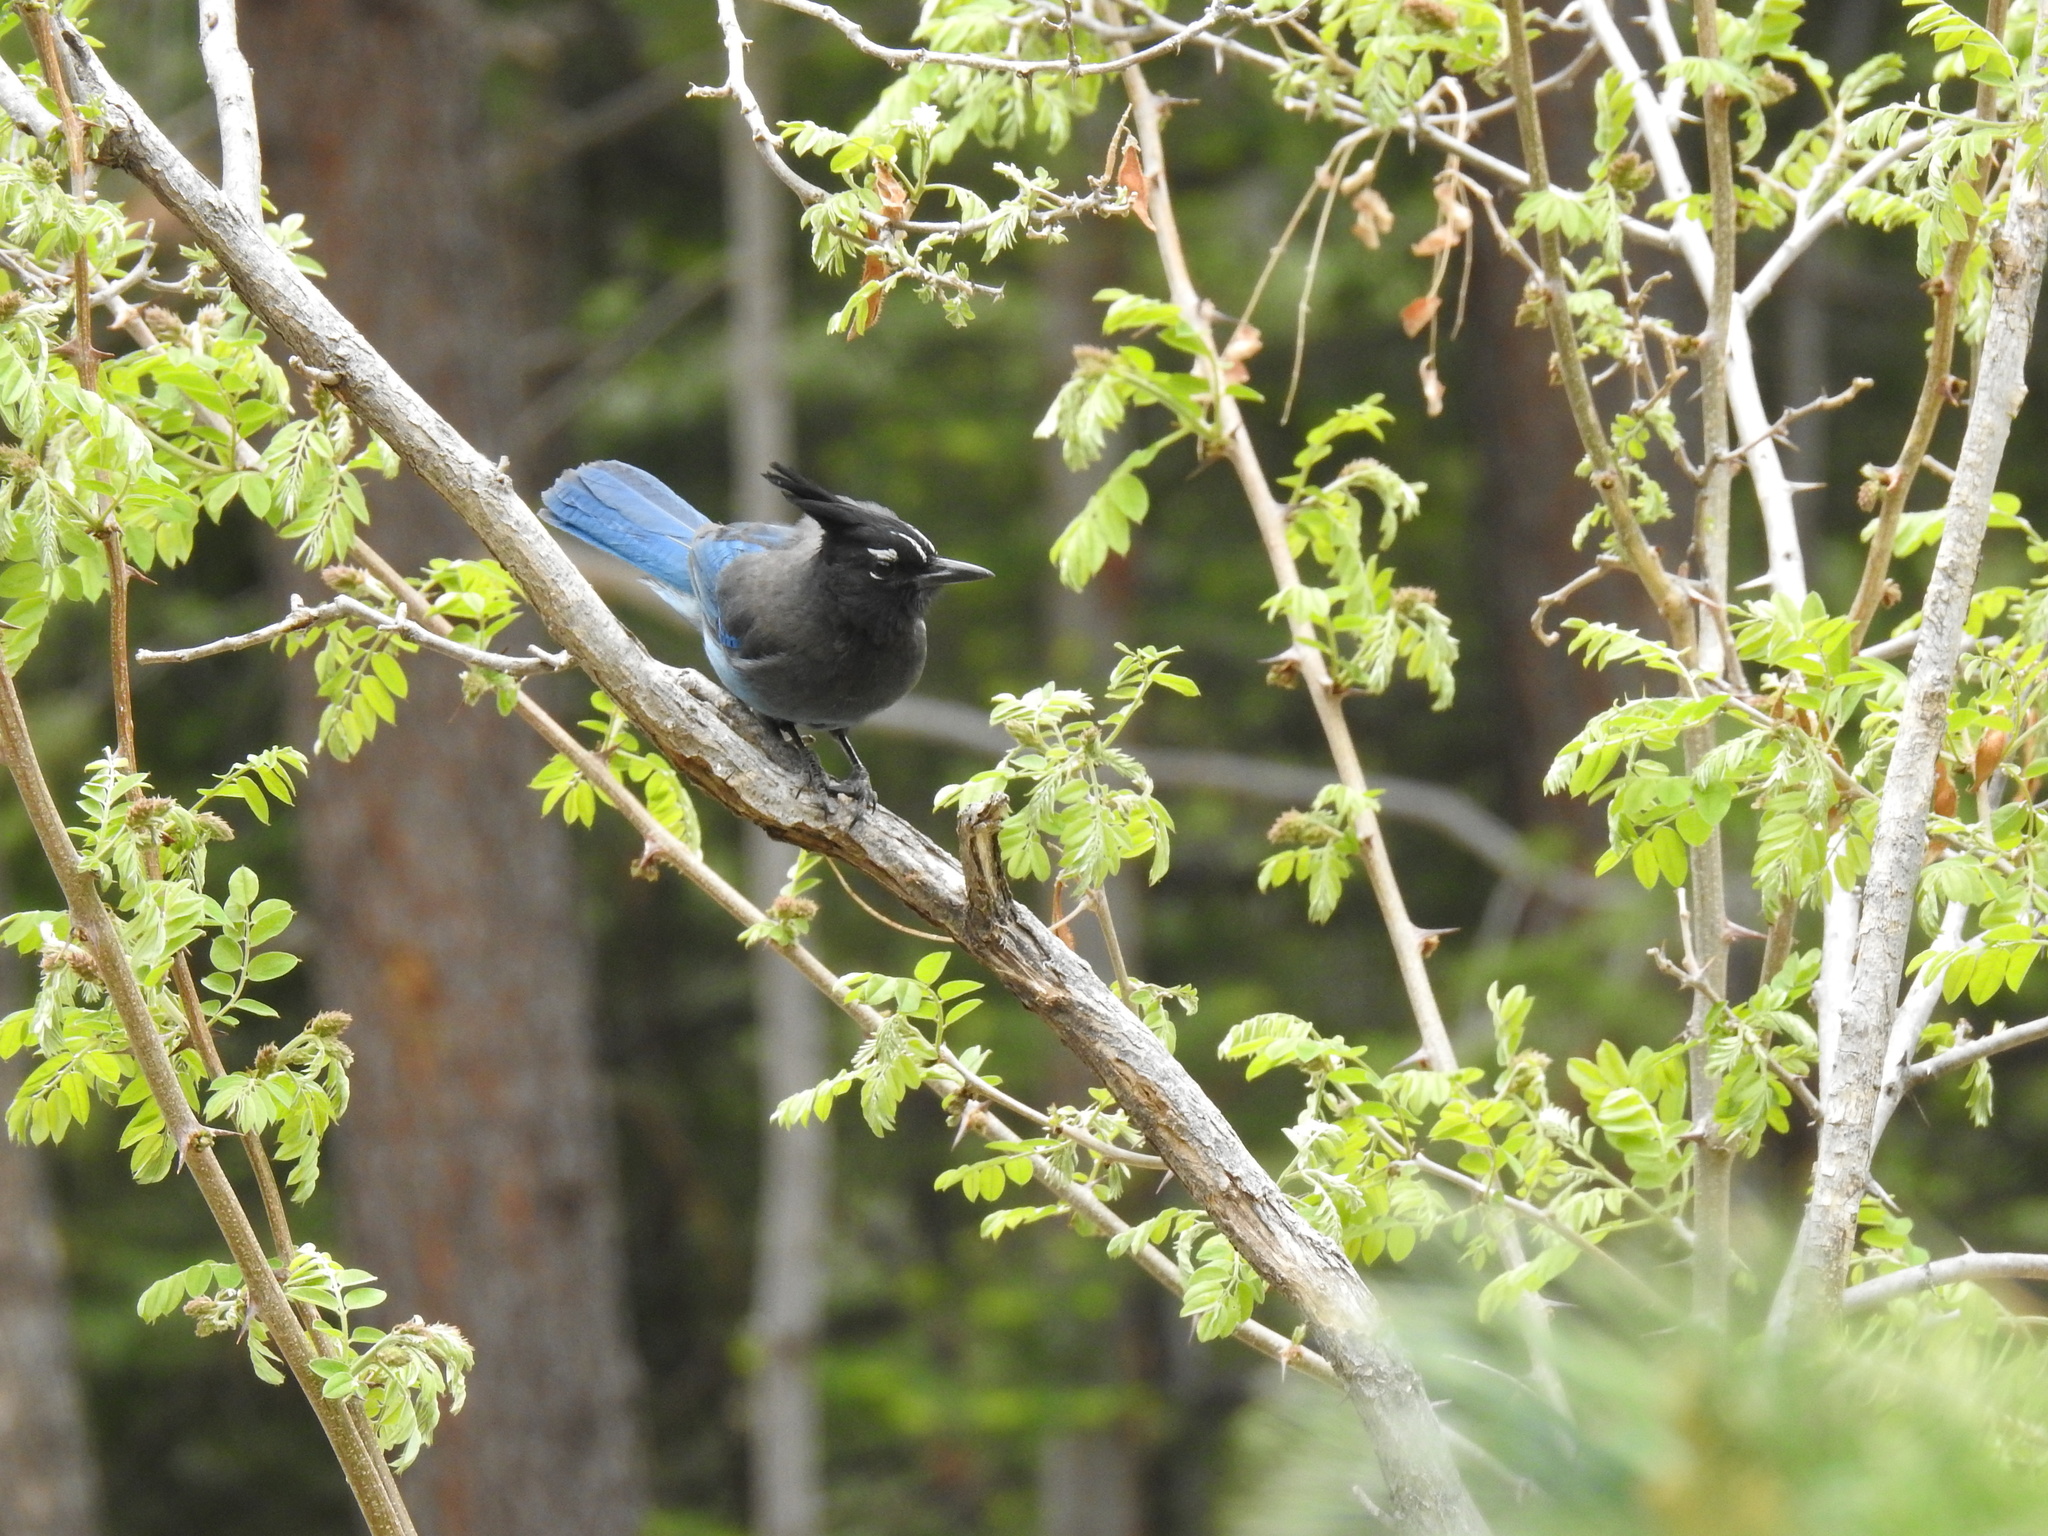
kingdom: Animalia
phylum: Chordata
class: Aves
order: Passeriformes
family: Corvidae
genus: Cyanocitta
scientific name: Cyanocitta stelleri
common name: Steller's jay
